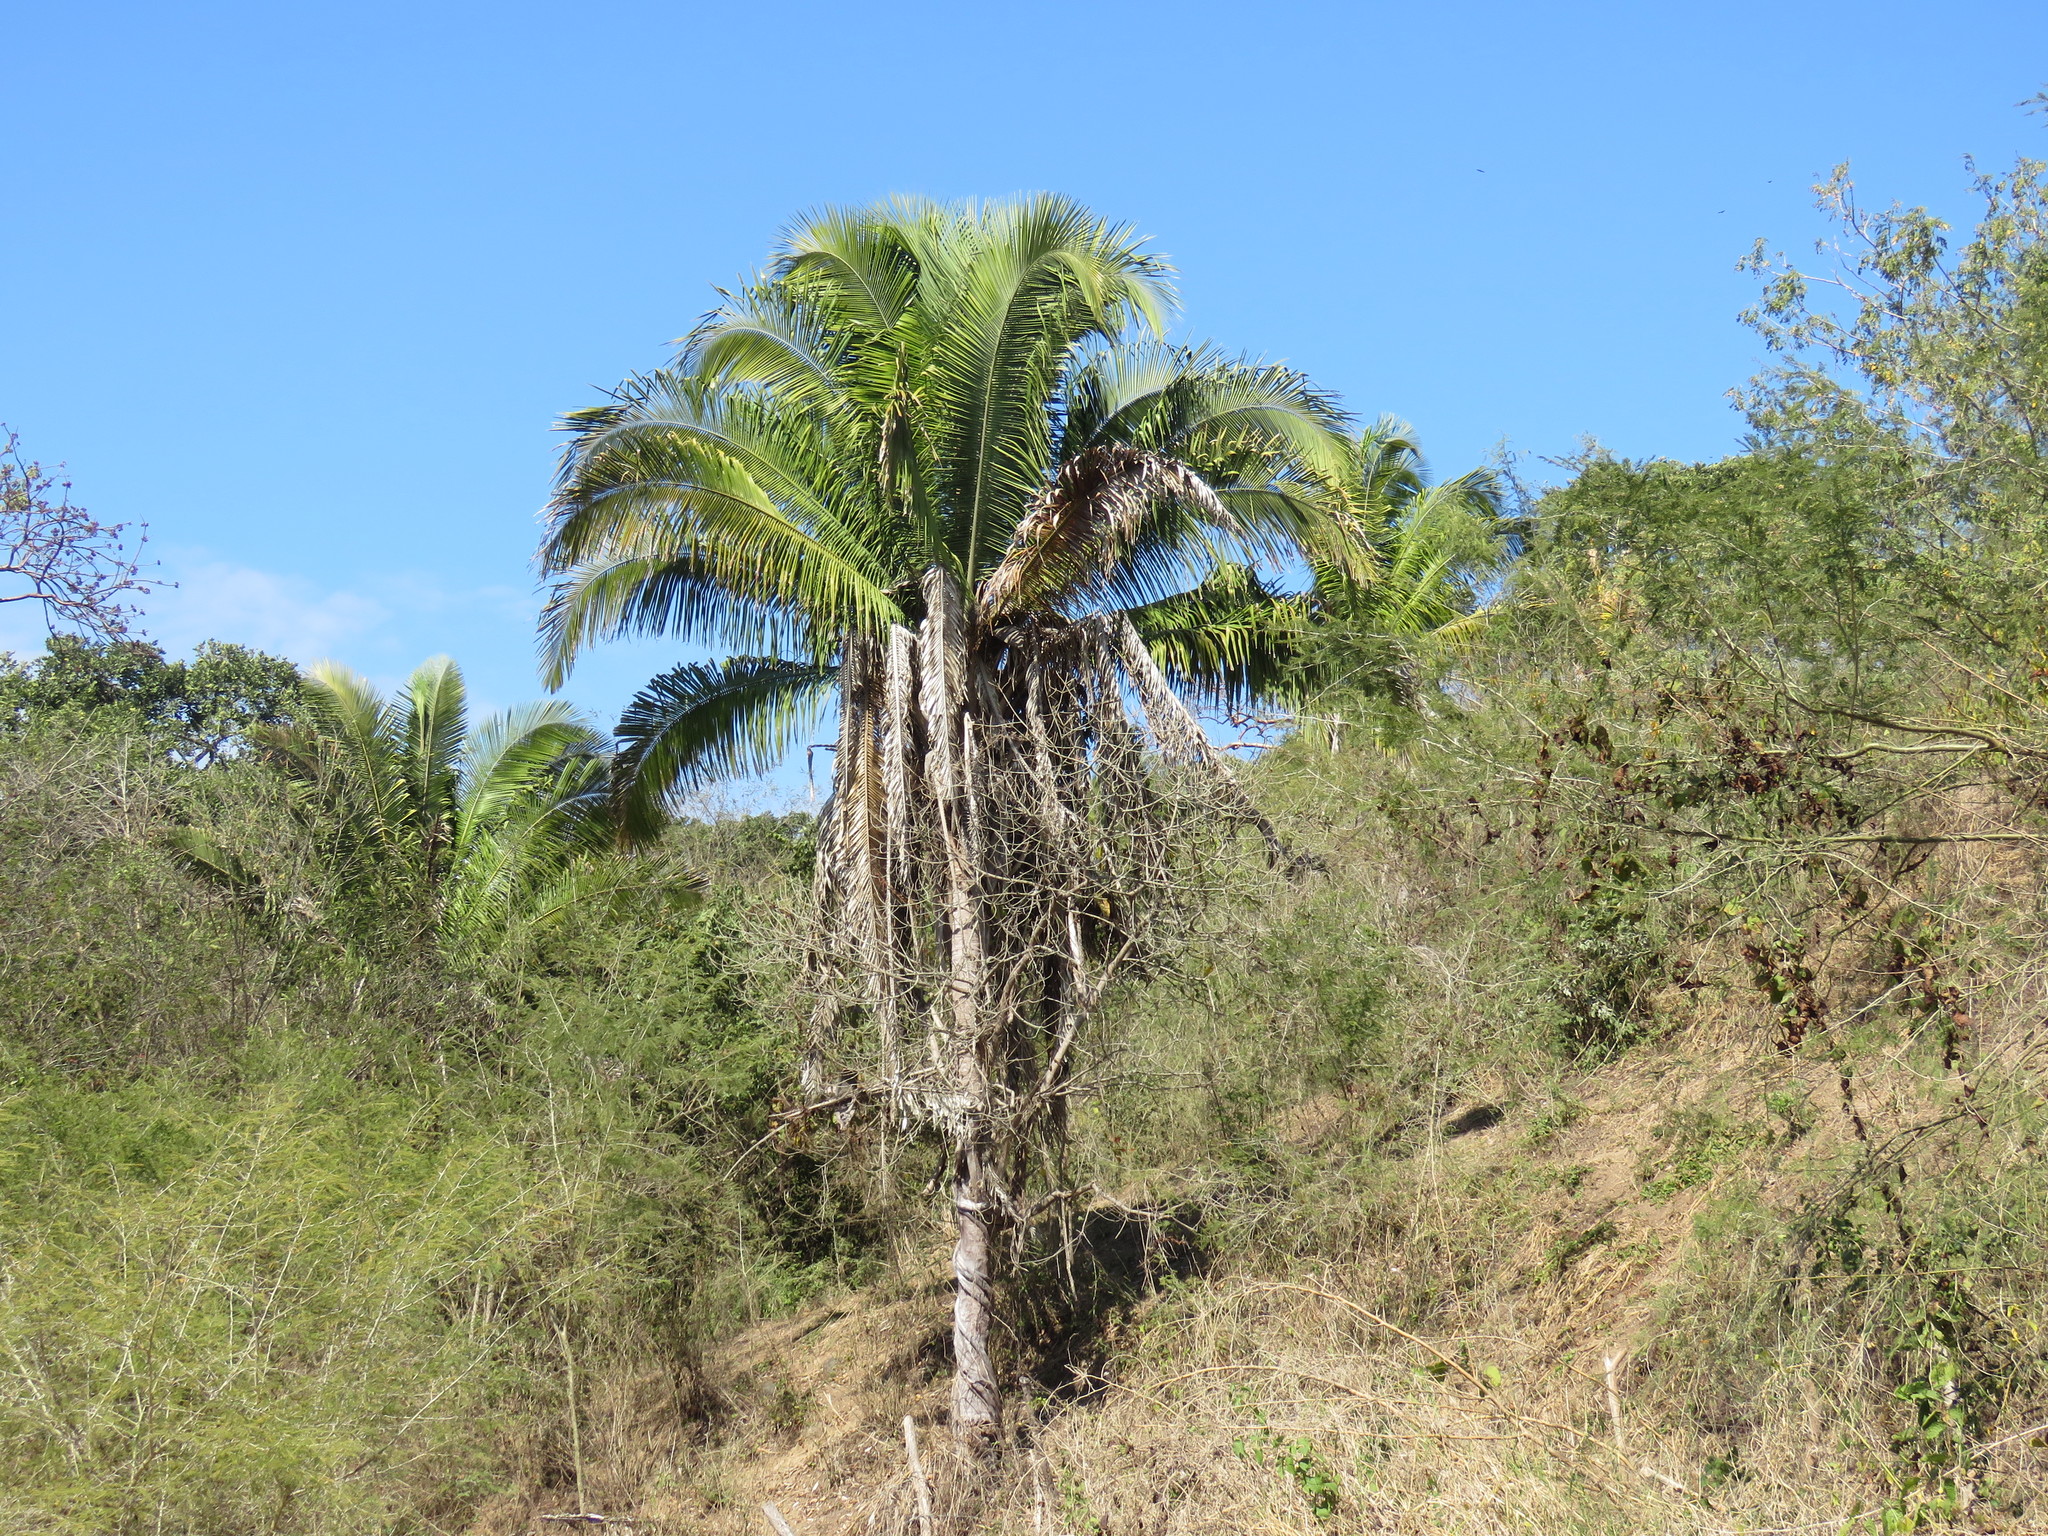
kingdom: Plantae
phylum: Tracheophyta
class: Liliopsida
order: Arecales
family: Arecaceae
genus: Attalea
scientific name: Attalea guacuyule
